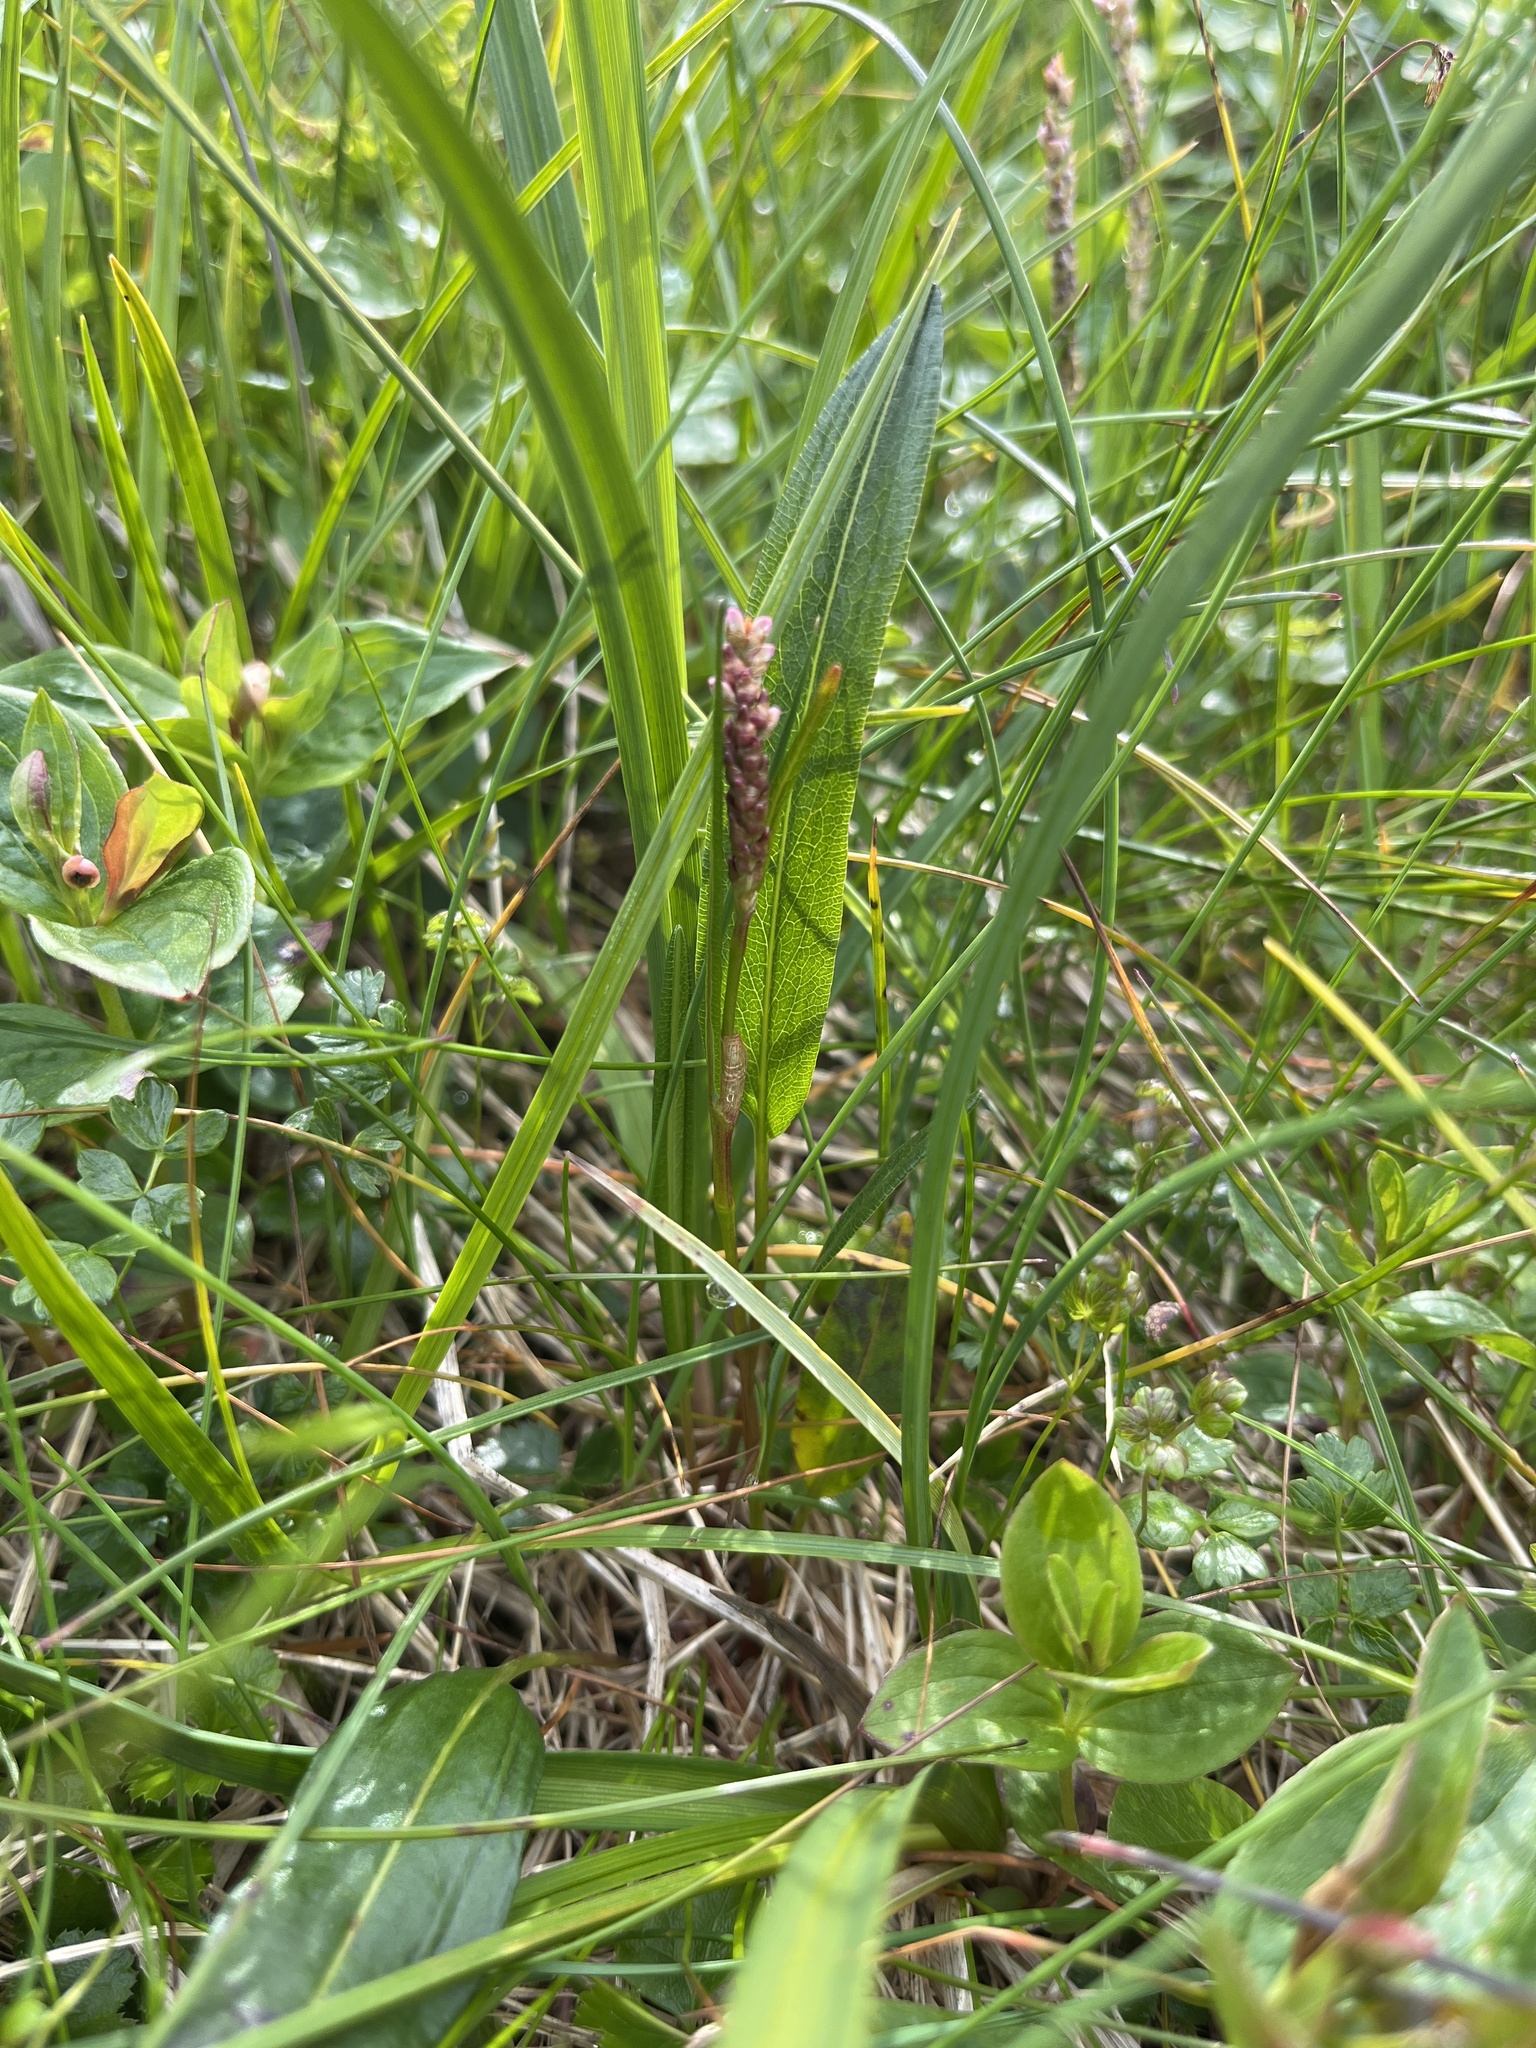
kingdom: Plantae
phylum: Tracheophyta
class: Magnoliopsida
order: Caryophyllales
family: Polygonaceae
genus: Bistorta
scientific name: Bistorta vivipara
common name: Alpine bistort
